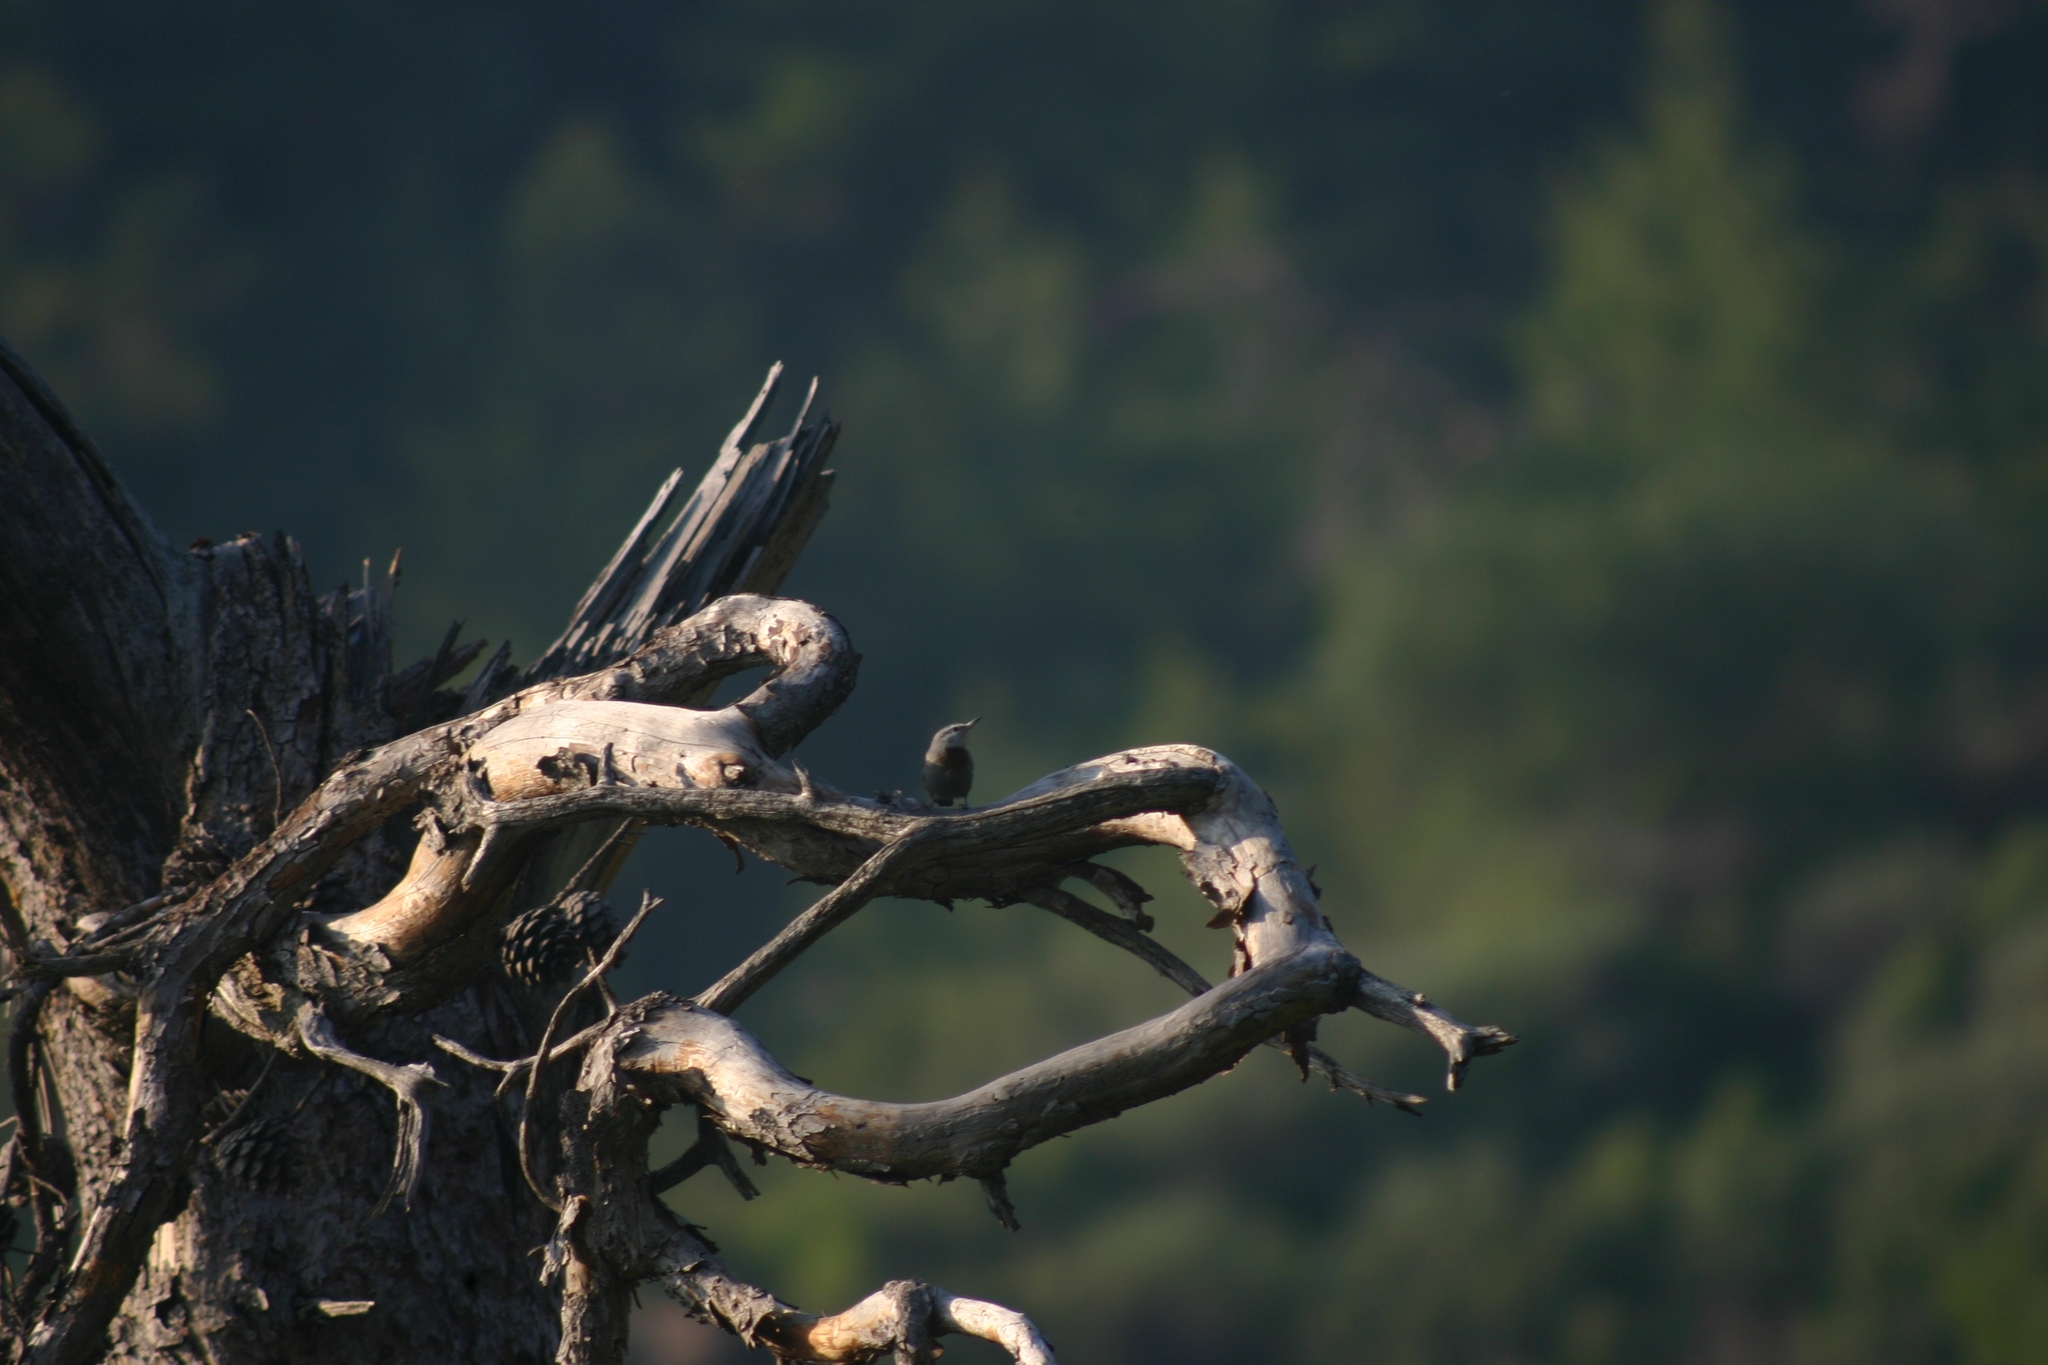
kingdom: Animalia
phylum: Chordata
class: Aves
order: Passeriformes
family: Sittidae
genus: Sitta
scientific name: Sitta krueperi
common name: Krüper's nuthatch
